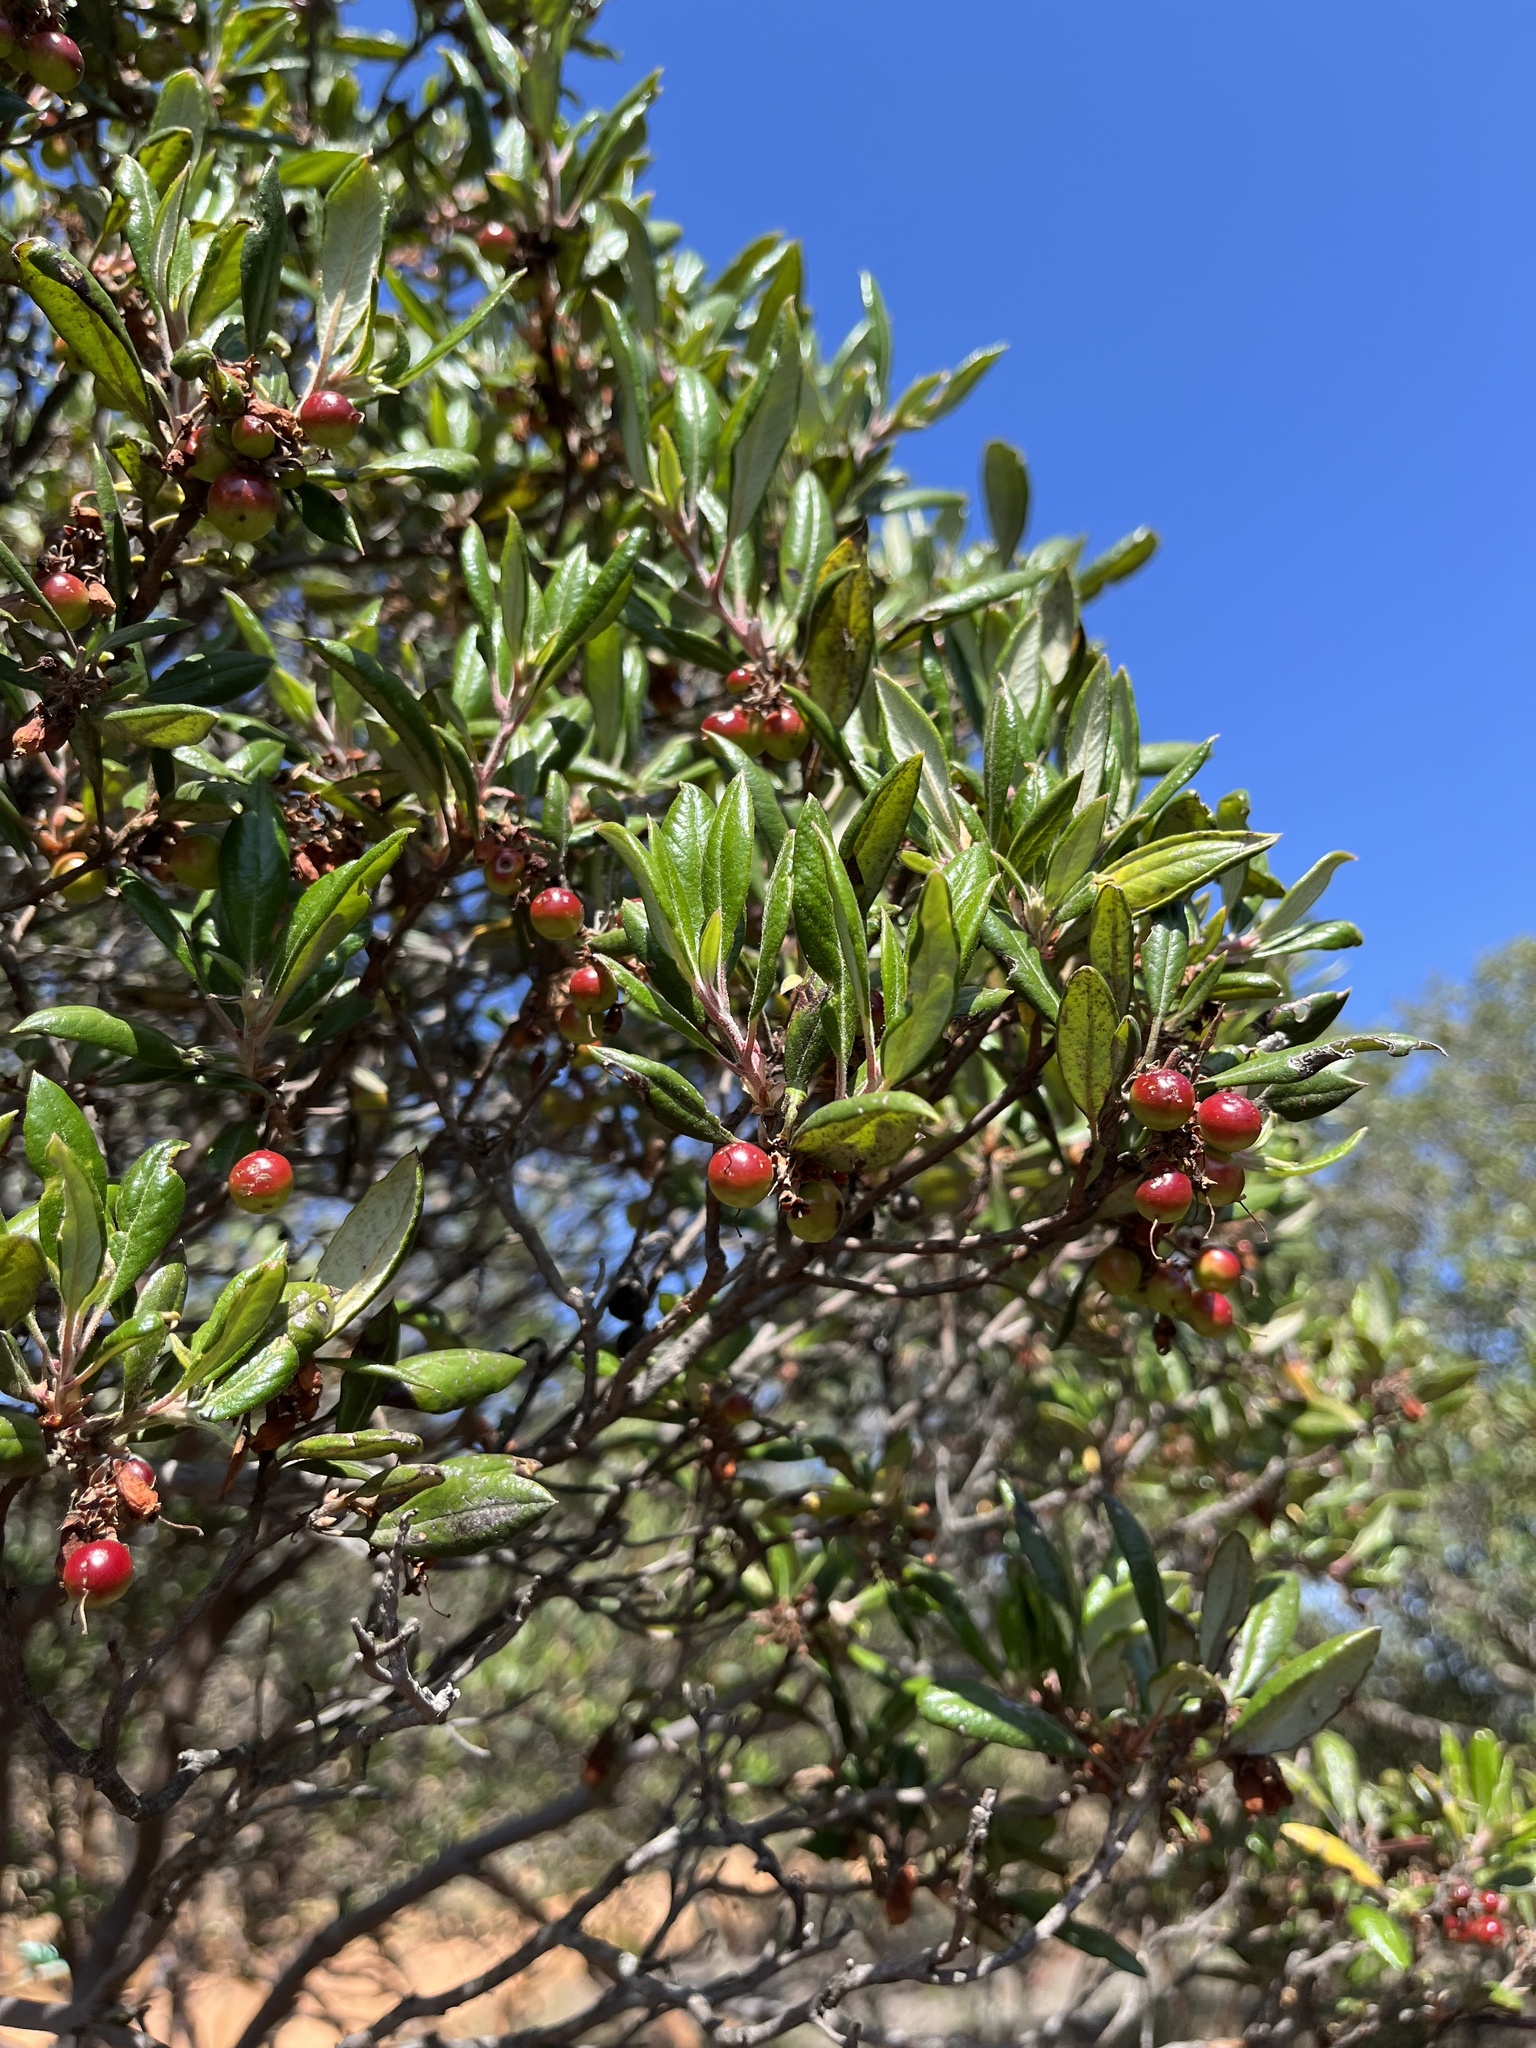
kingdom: Plantae
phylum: Tracheophyta
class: Magnoliopsida
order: Ericales
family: Ericaceae
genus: Arctostaphylos
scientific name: Arctostaphylos bicolor
